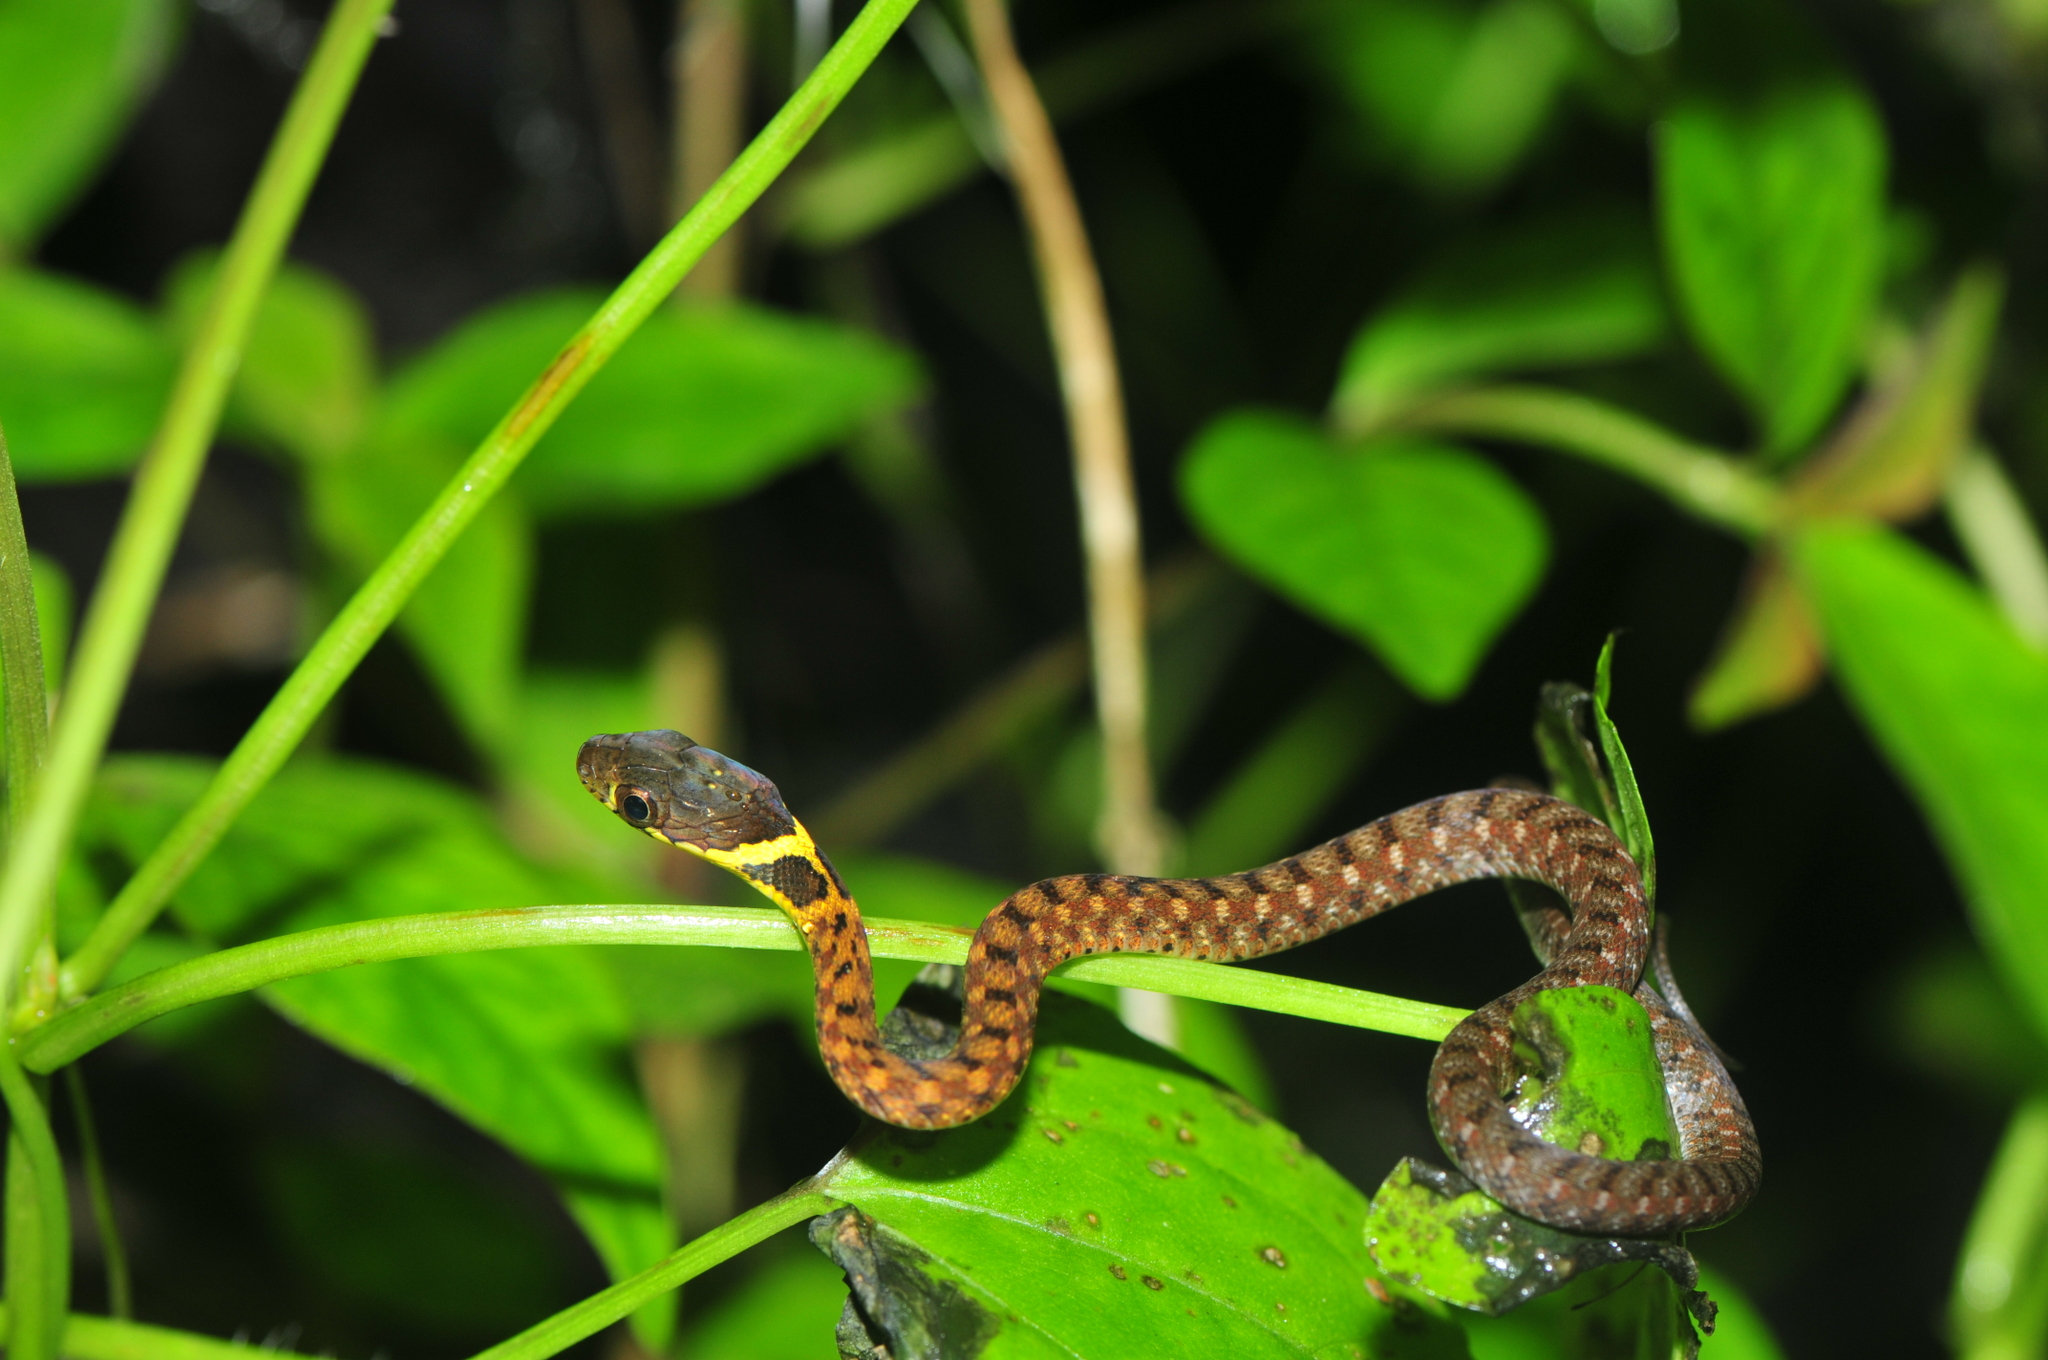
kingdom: Animalia
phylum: Chordata
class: Squamata
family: Colubridae
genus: Rhabdophis
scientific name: Rhabdophis chrysargos
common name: Specklebelly keelback
